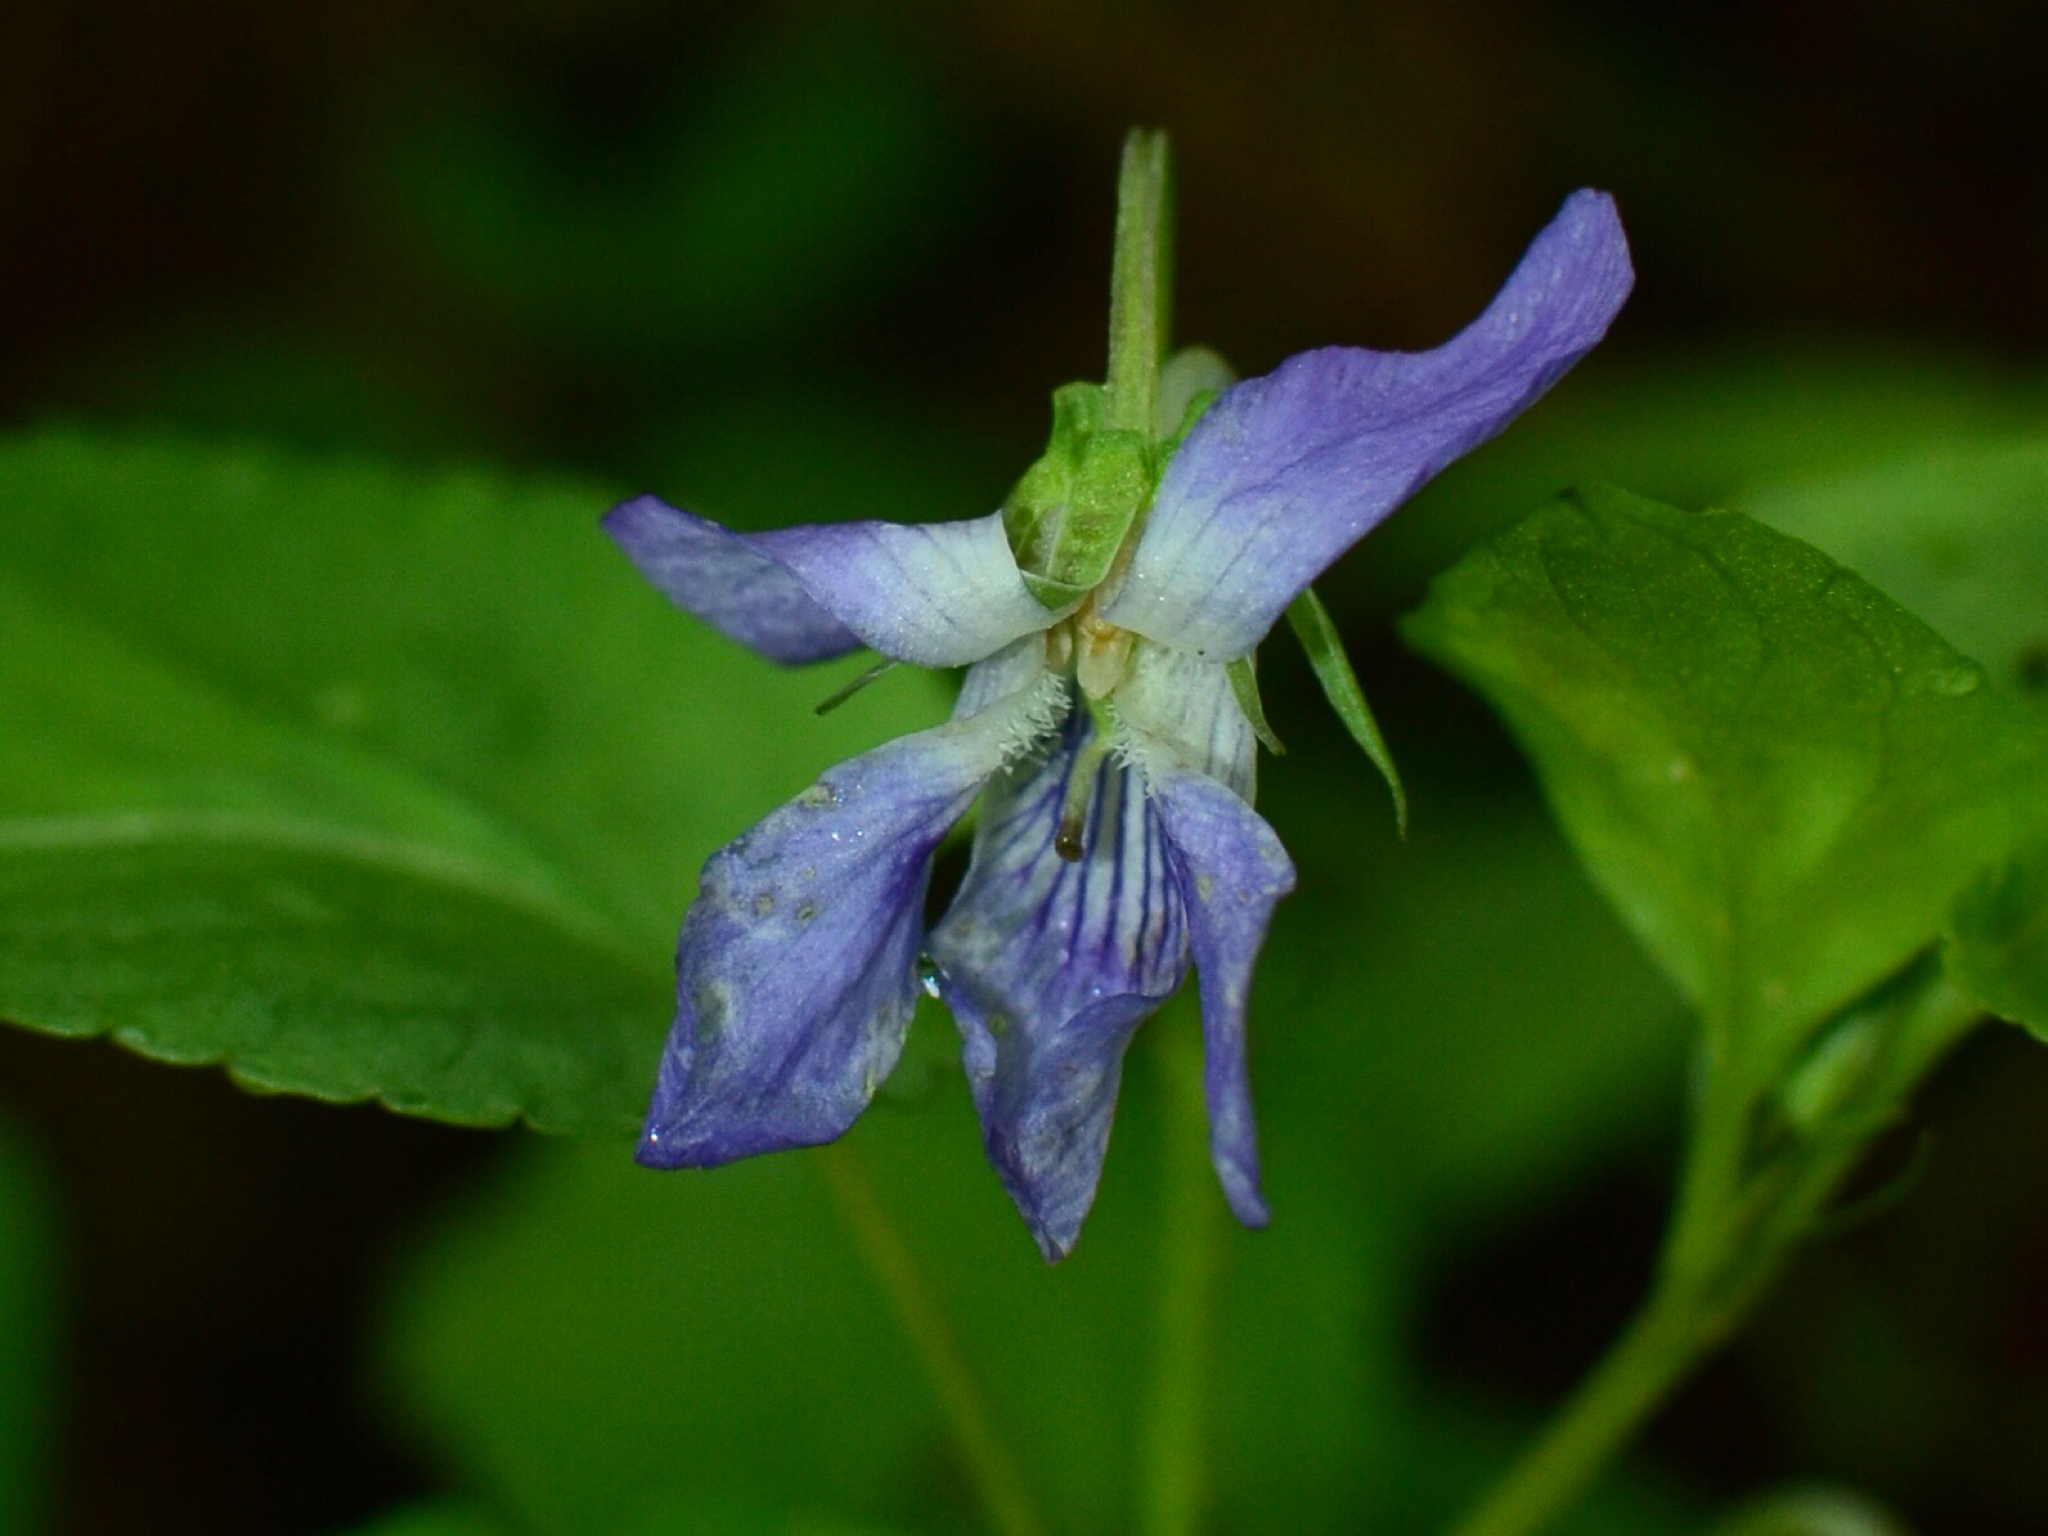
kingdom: Plantae
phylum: Tracheophyta
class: Magnoliopsida
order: Malpighiales
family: Violaceae
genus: Viola
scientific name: Viola riviniana
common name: Common dog-violet
